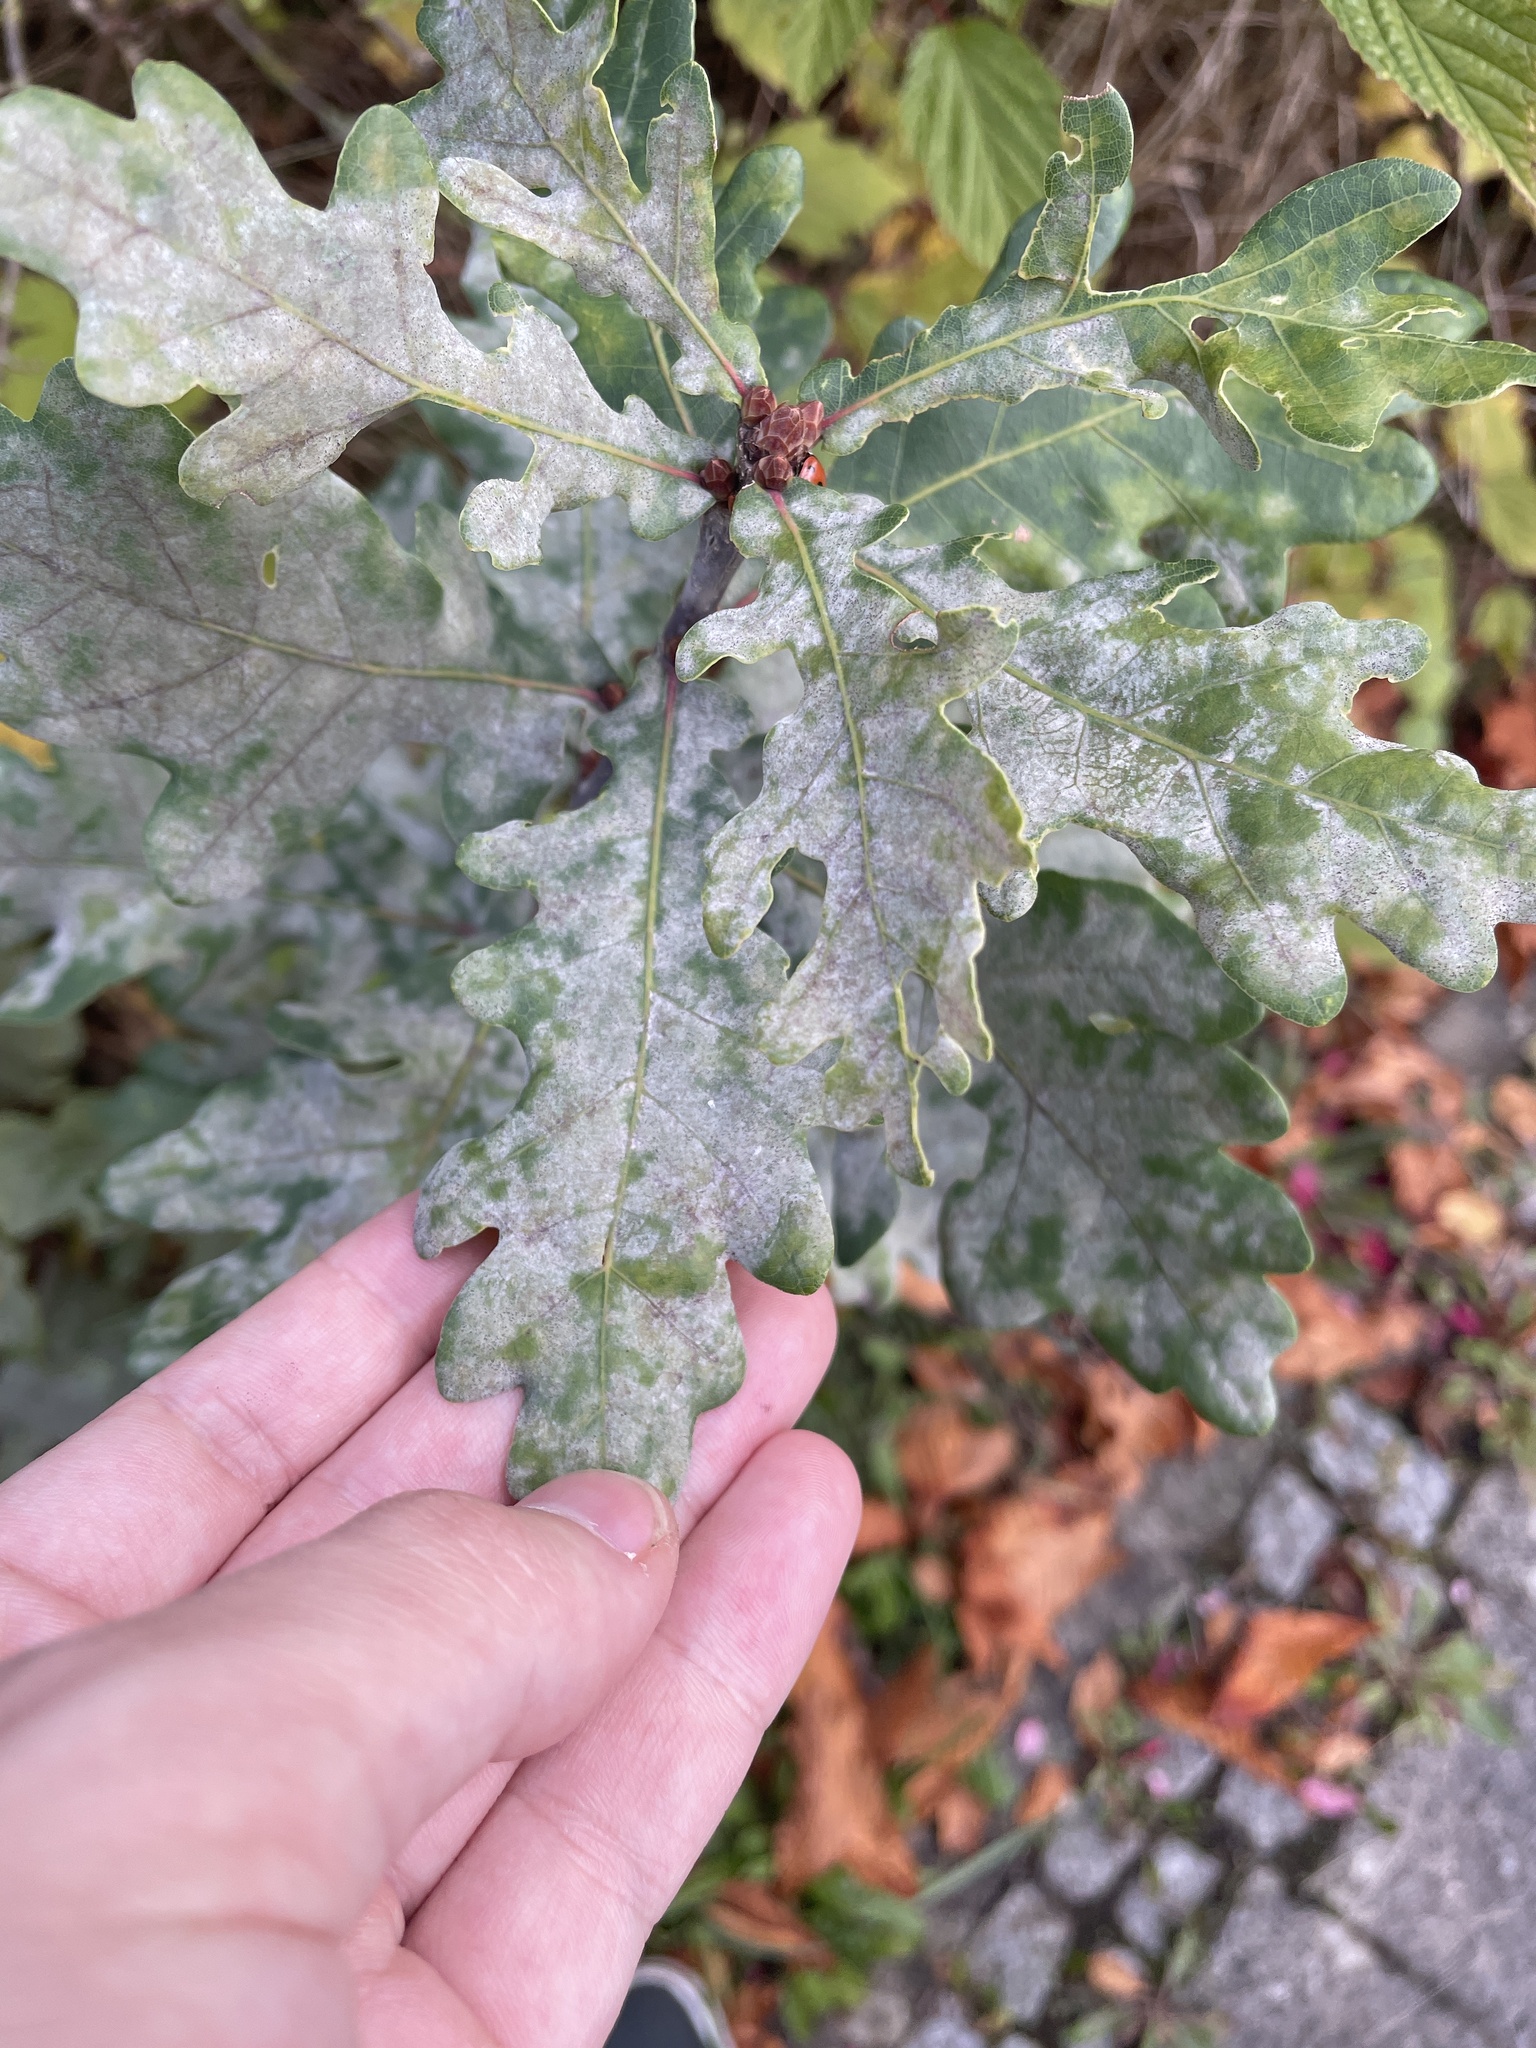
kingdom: Fungi
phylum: Ascomycota
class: Leotiomycetes
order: Helotiales
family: Erysiphaceae
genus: Erysiphe
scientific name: Erysiphe
